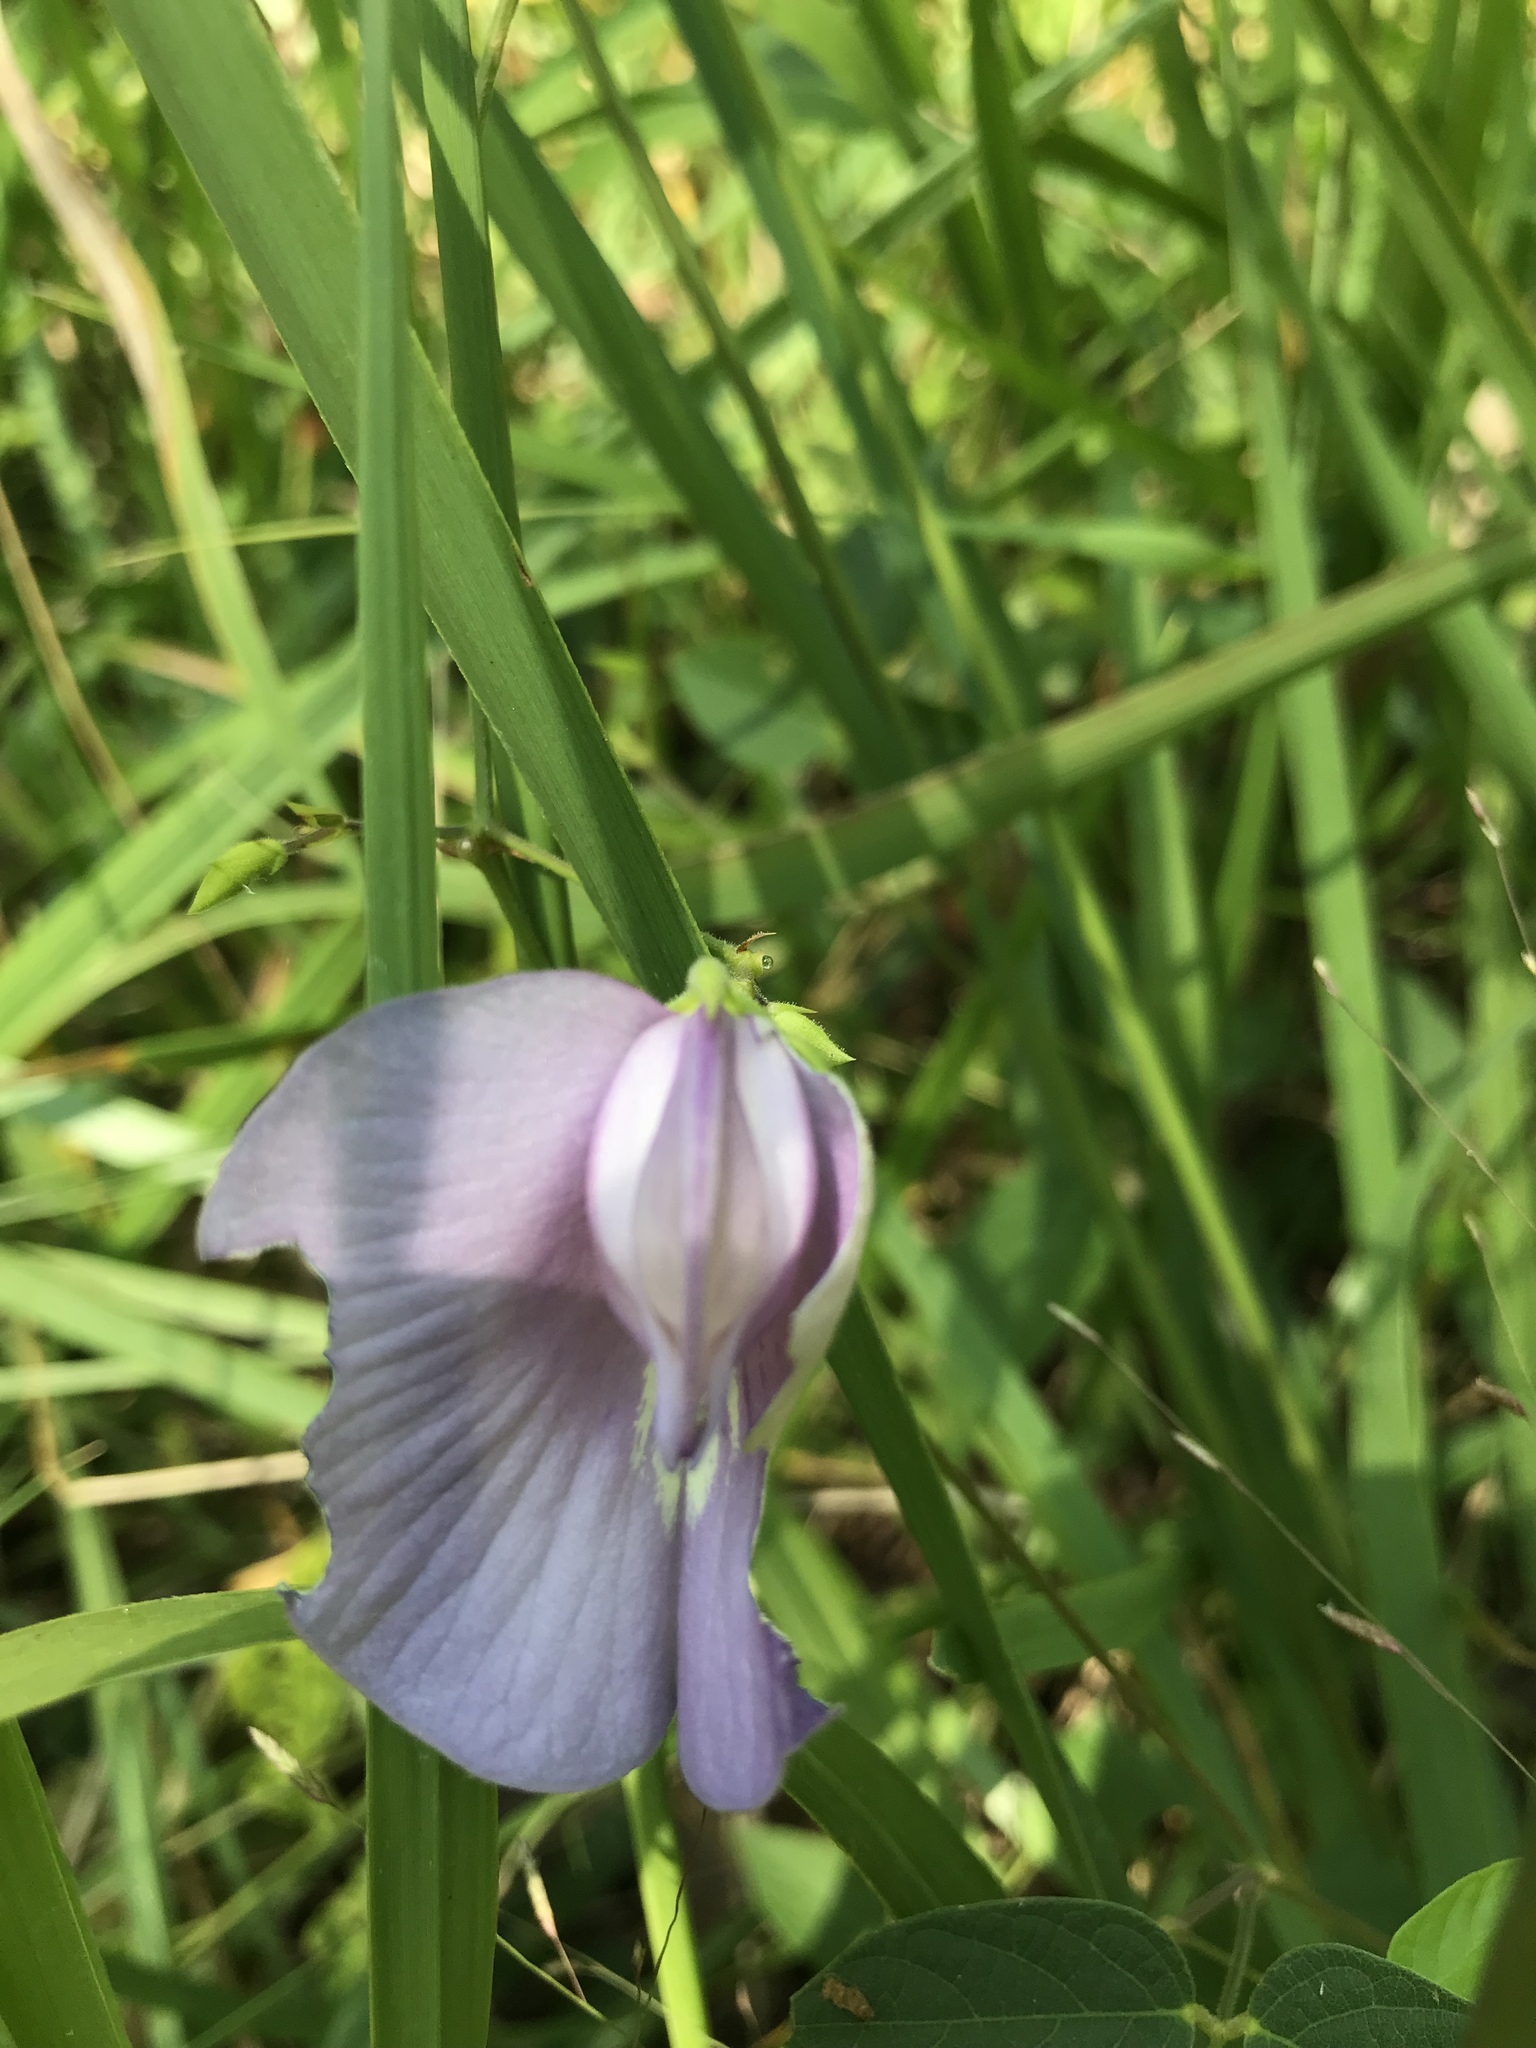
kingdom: Plantae
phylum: Tracheophyta
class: Magnoliopsida
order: Fabales
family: Fabaceae
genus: Centrosema
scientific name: Centrosema virginianum
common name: Butterfly-pea
